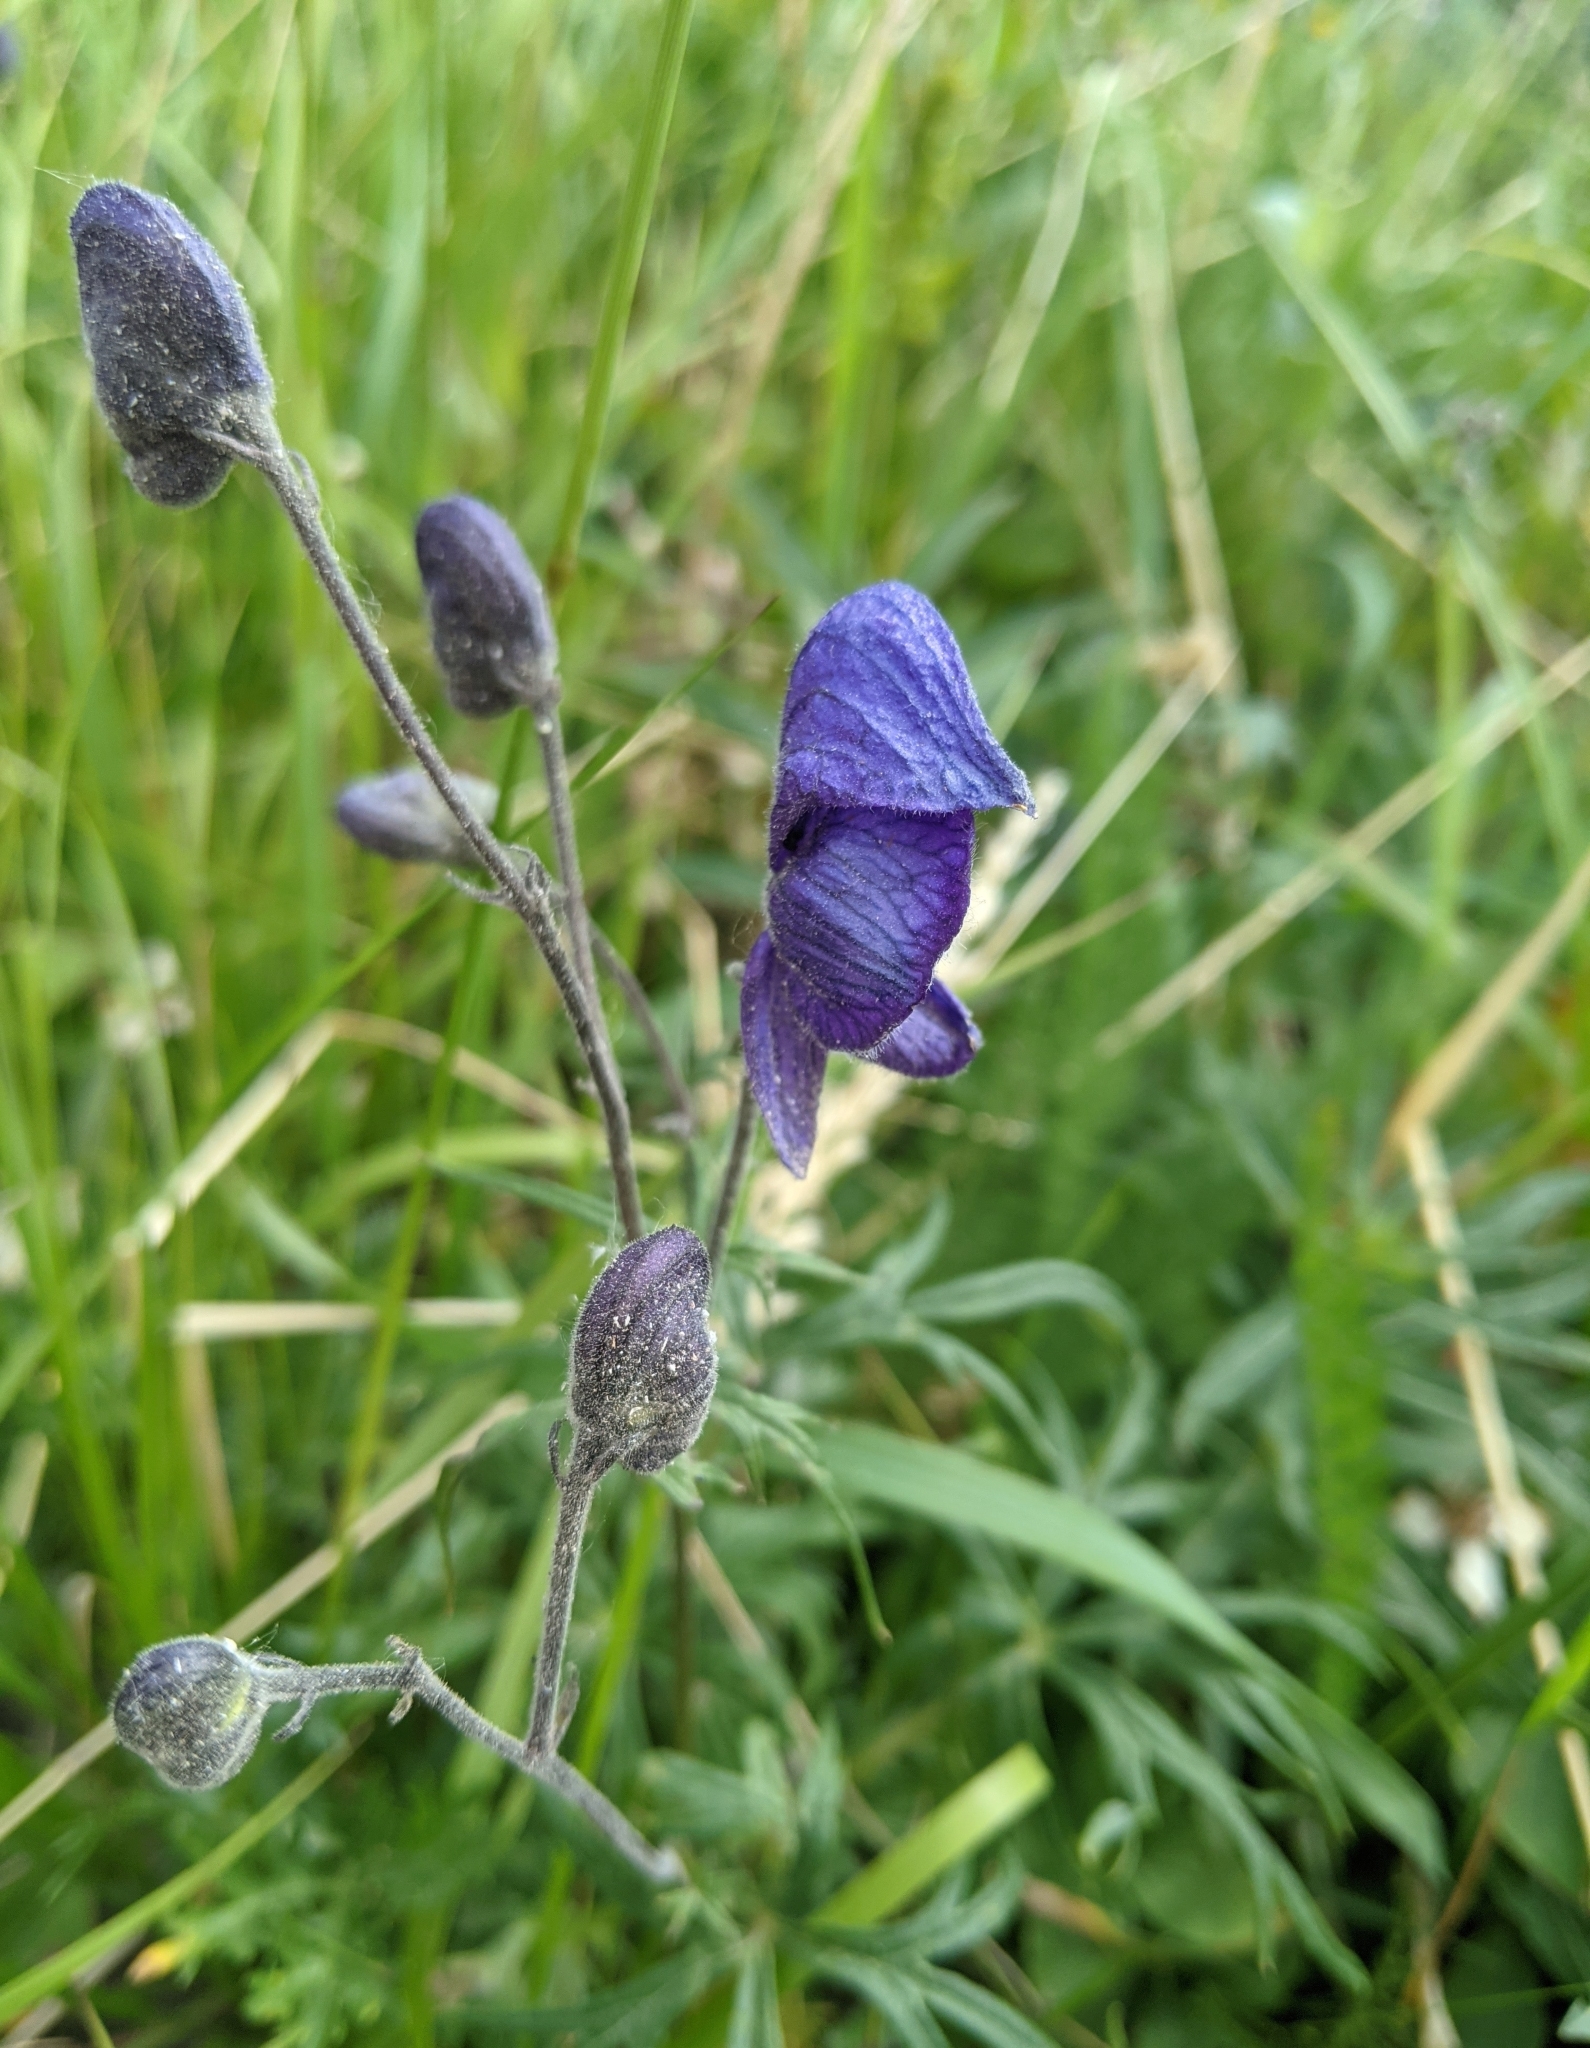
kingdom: Plantae
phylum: Tracheophyta
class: Magnoliopsida
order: Ranunculales
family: Ranunculaceae
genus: Aconitum
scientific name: Aconitum delphiniifolium
